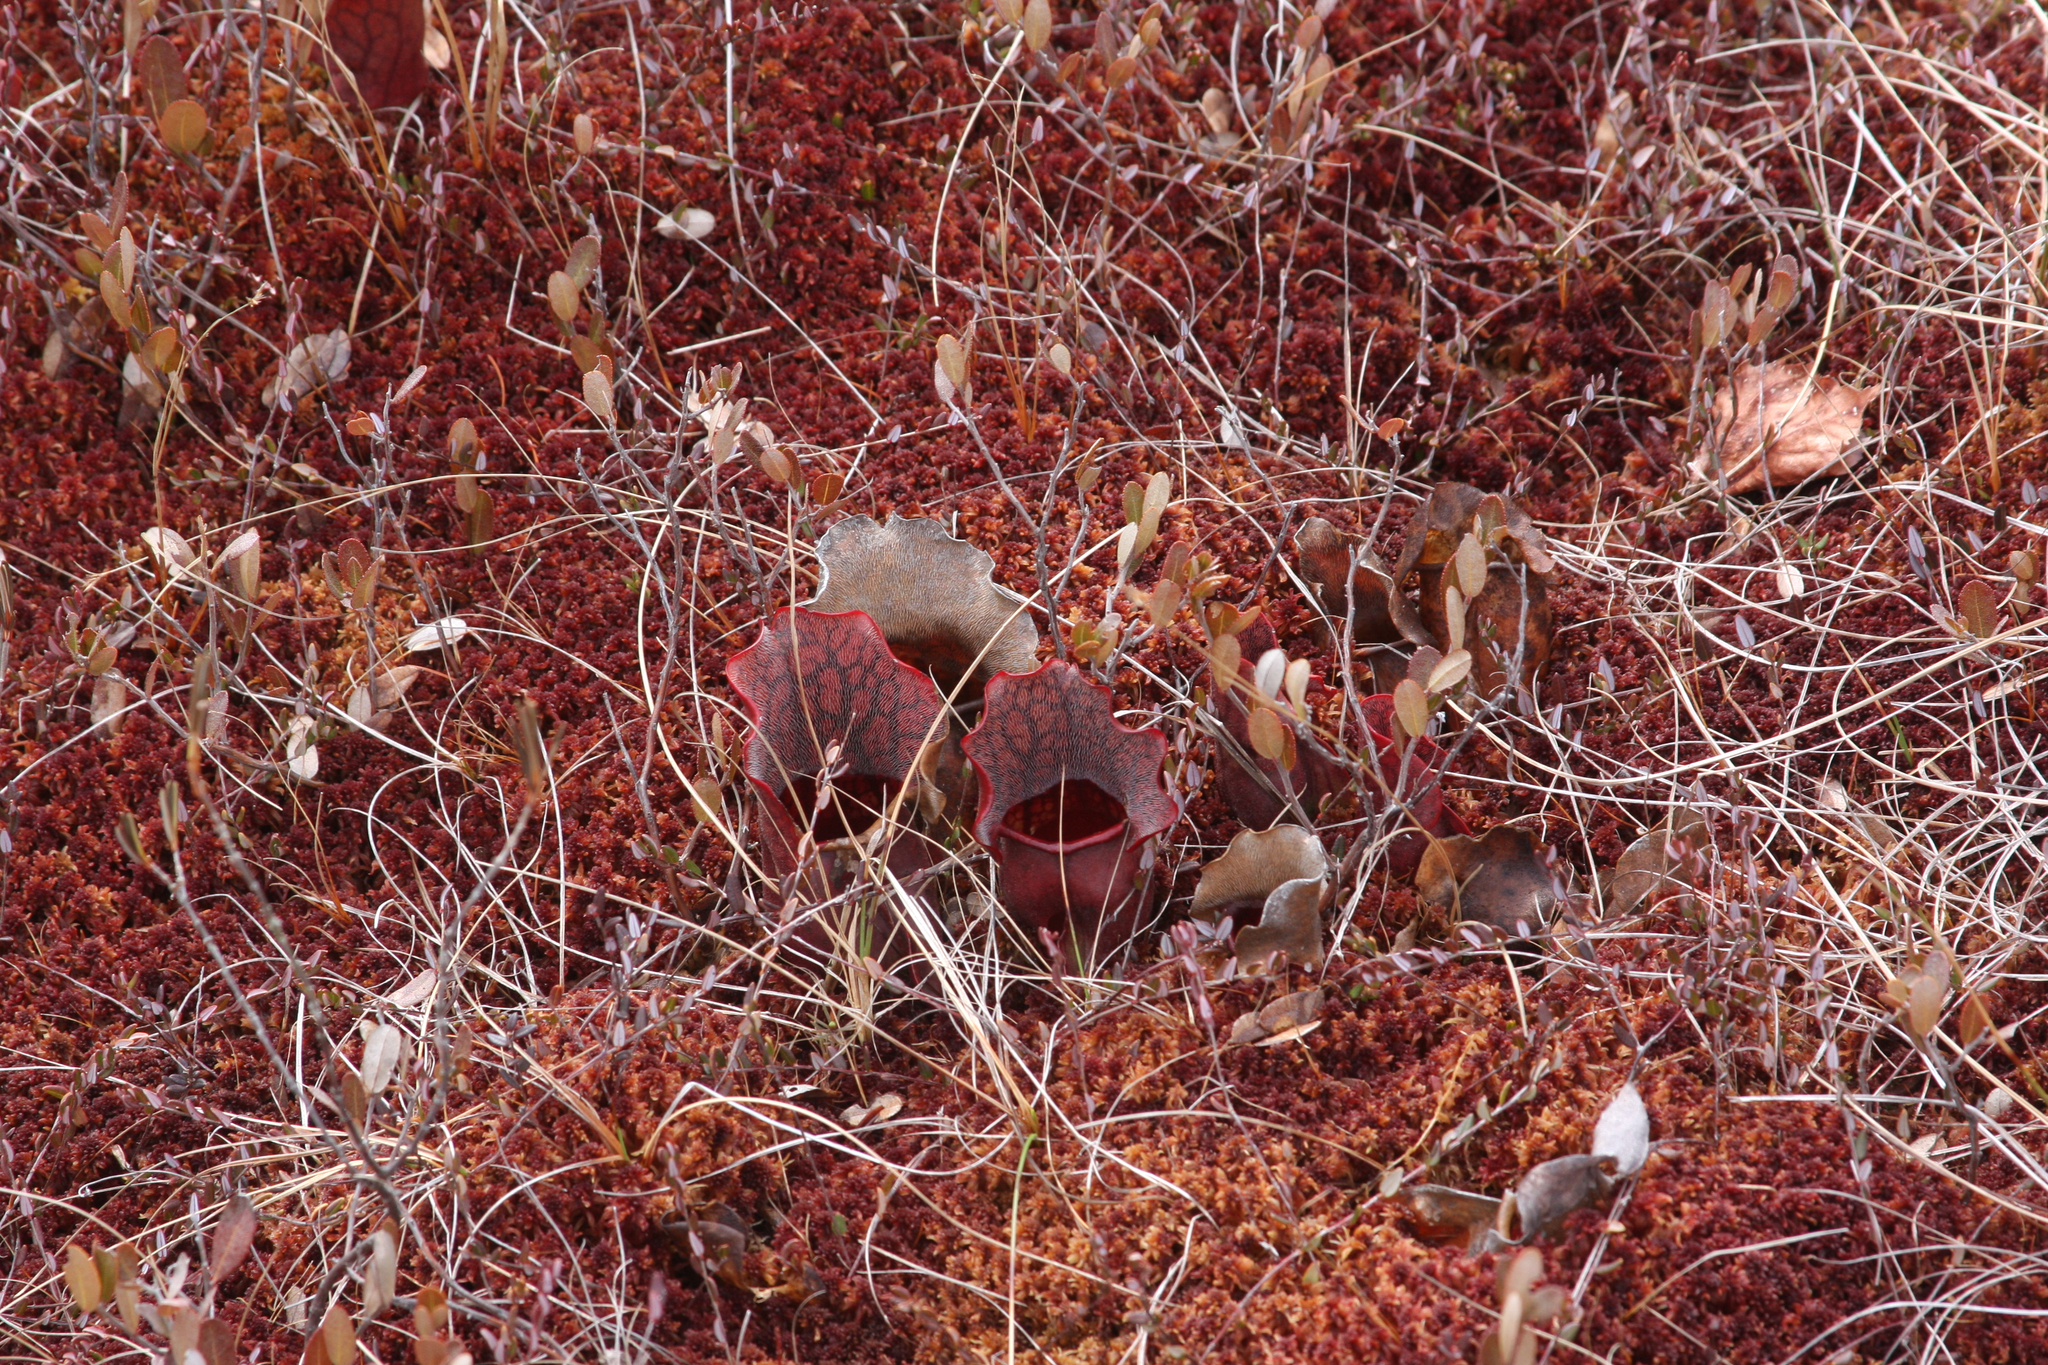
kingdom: Plantae
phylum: Tracheophyta
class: Magnoliopsida
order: Ericales
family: Sarraceniaceae
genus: Sarracenia
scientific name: Sarracenia purpurea
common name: Pitcherplant
